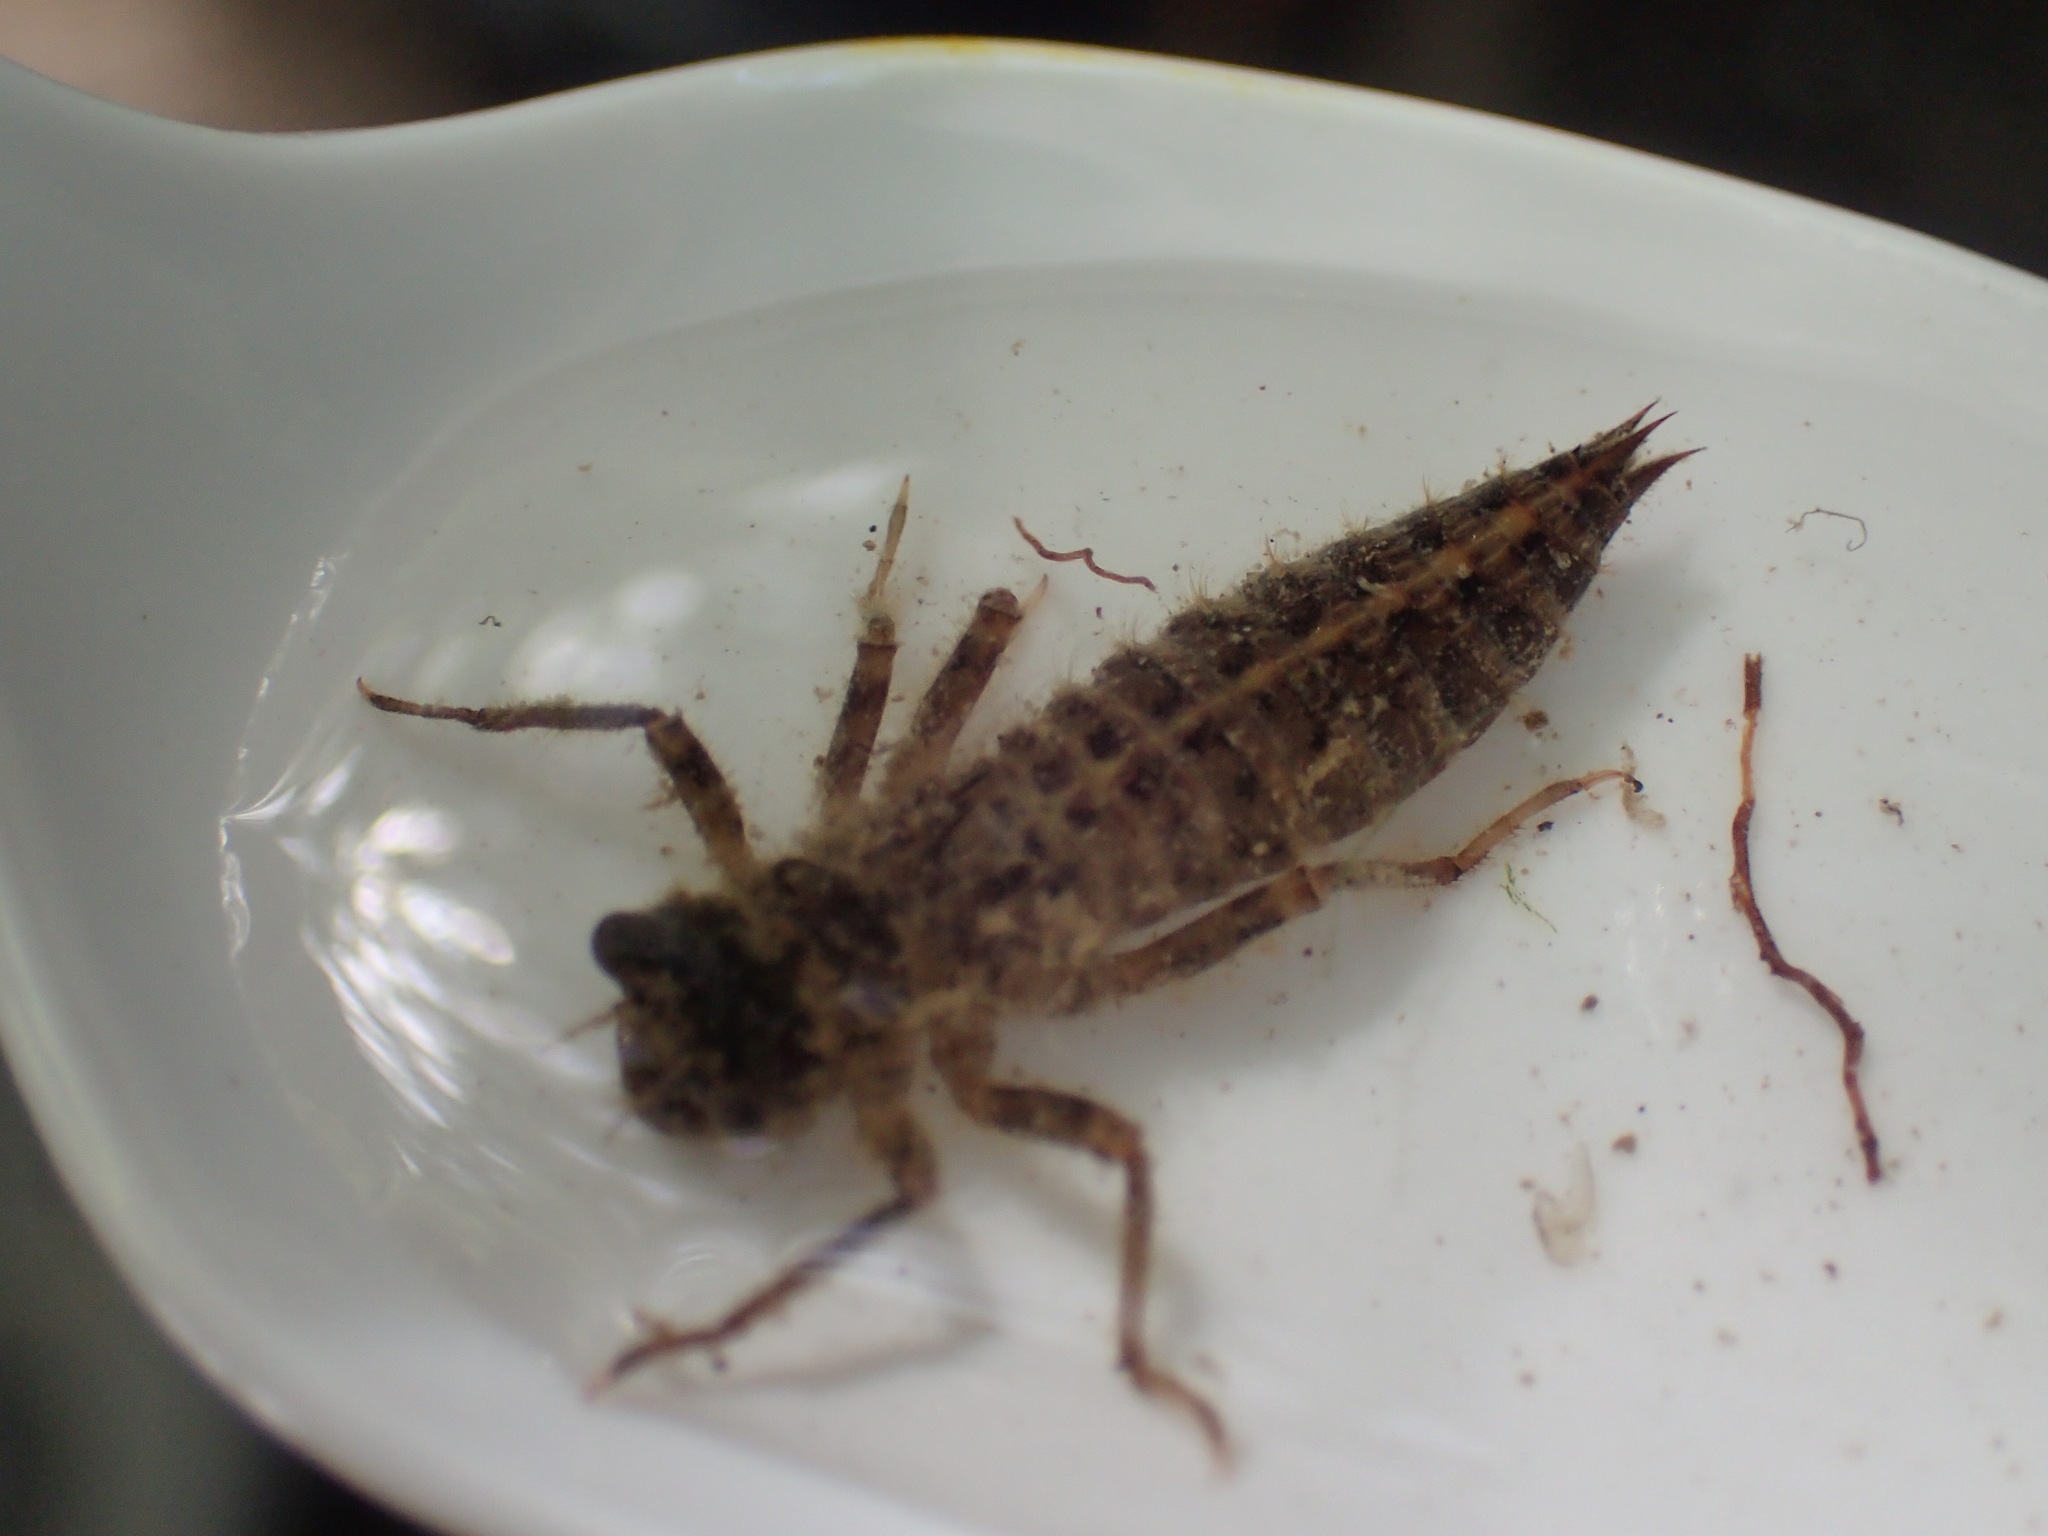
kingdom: Animalia
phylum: Arthropoda
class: Insecta
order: Odonata
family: Cordulegastridae
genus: Cordulegaster
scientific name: Cordulegaster dorsalis
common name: Pacific spiketail
